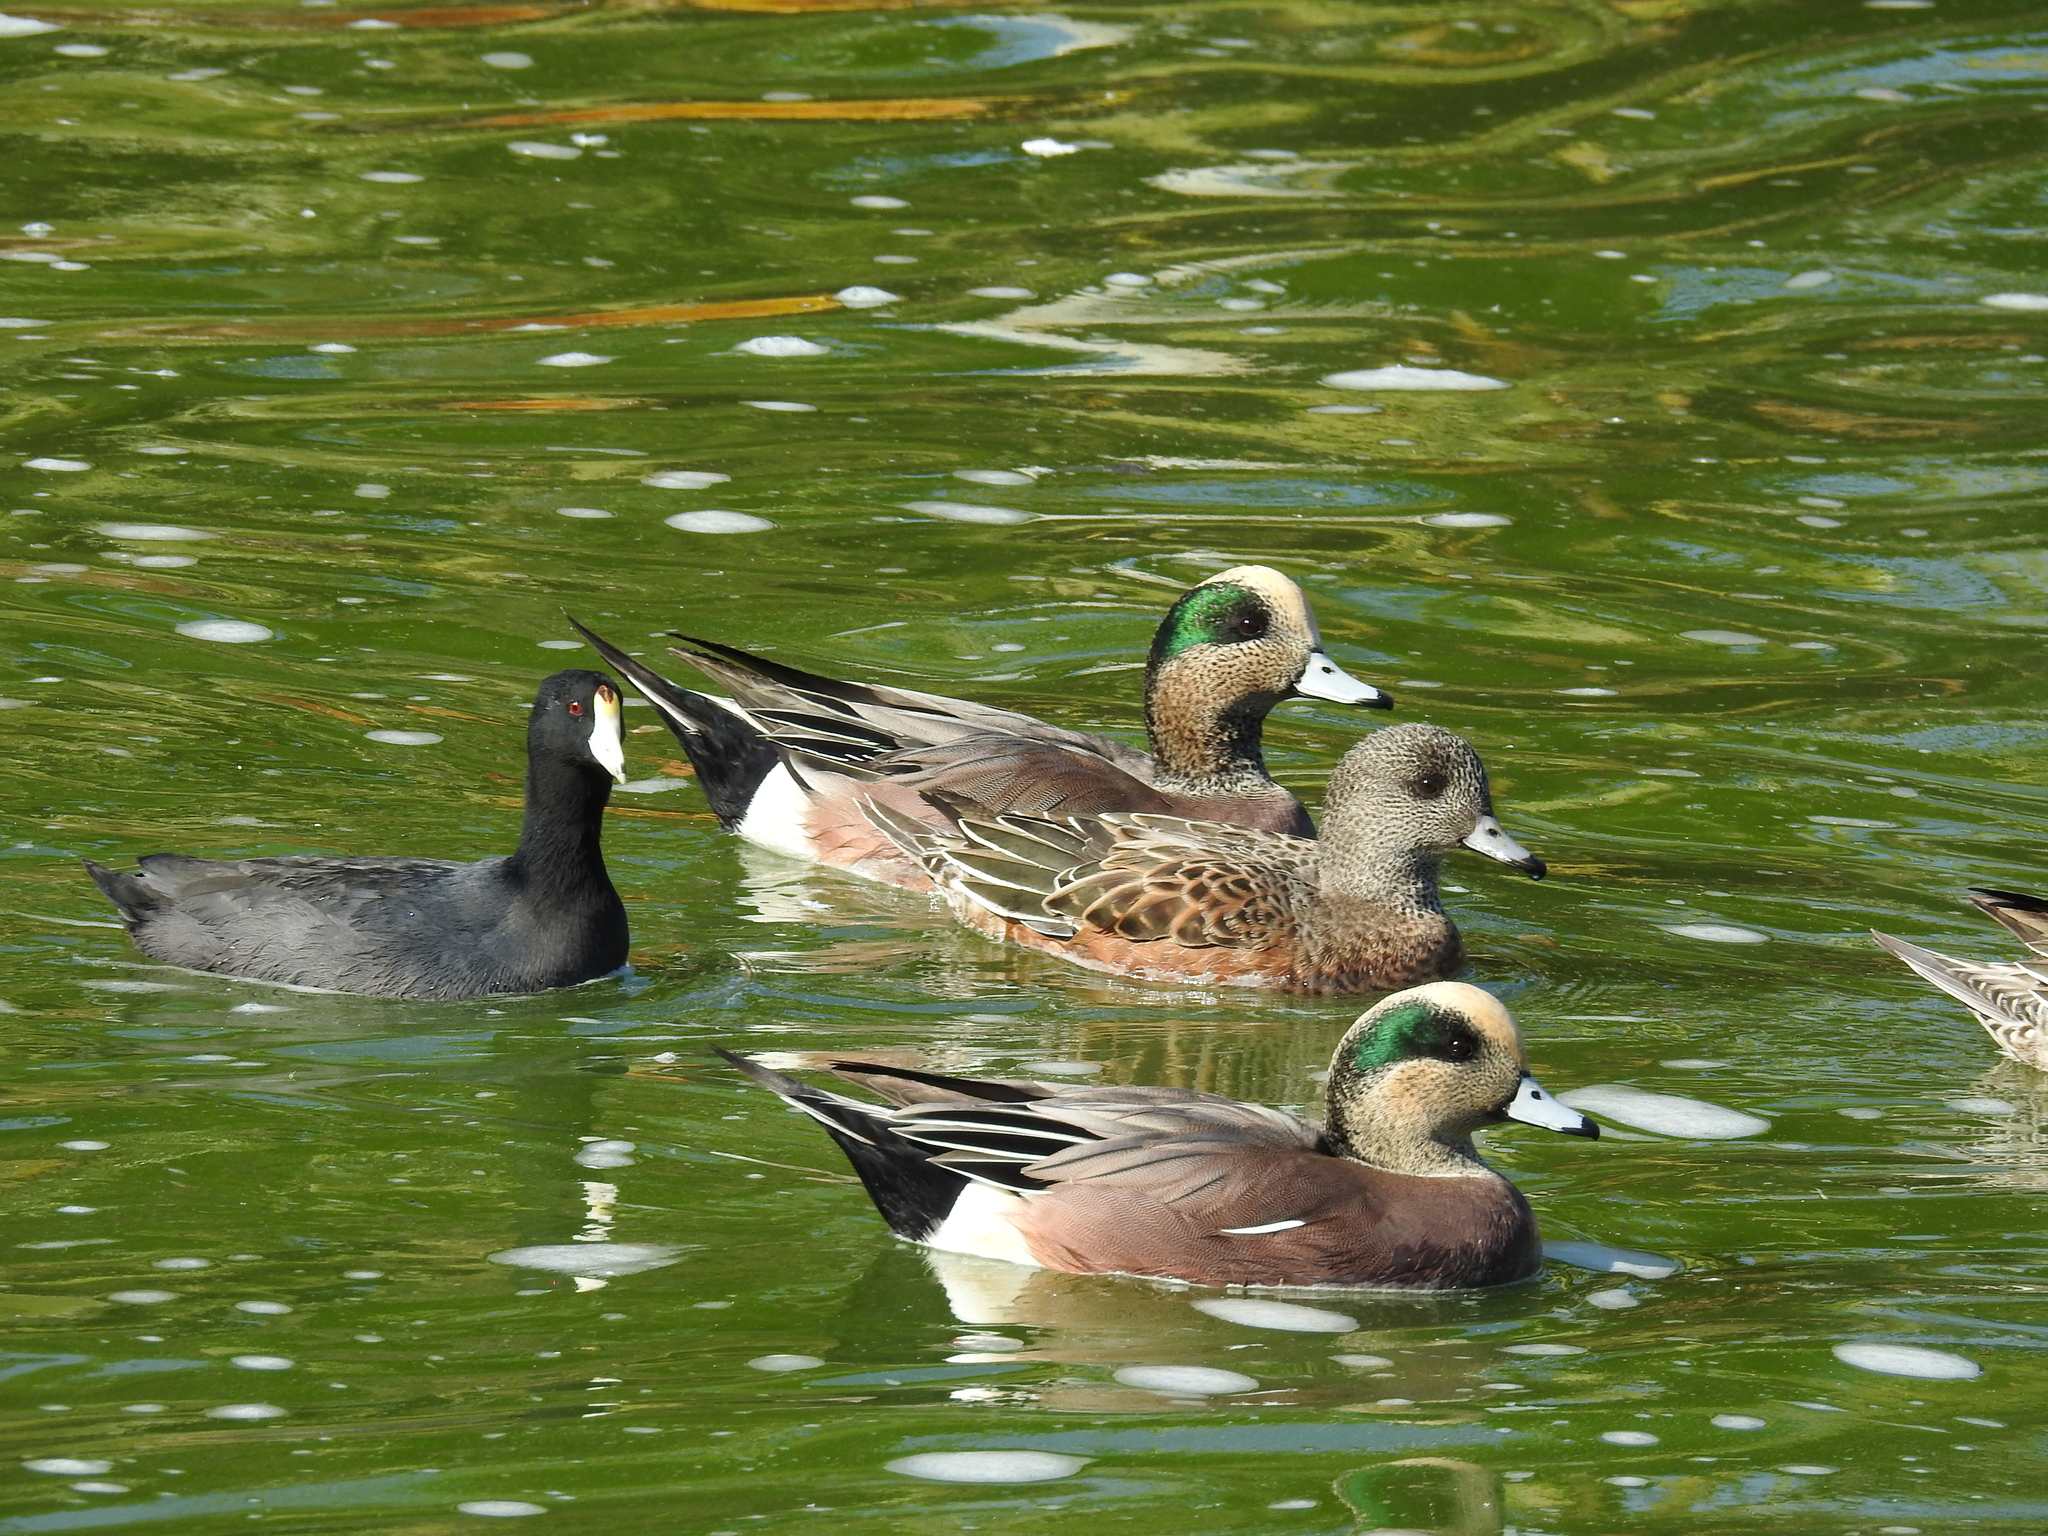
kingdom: Animalia
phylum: Chordata
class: Aves
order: Anseriformes
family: Anatidae
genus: Mareca
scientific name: Mareca americana
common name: American wigeon
